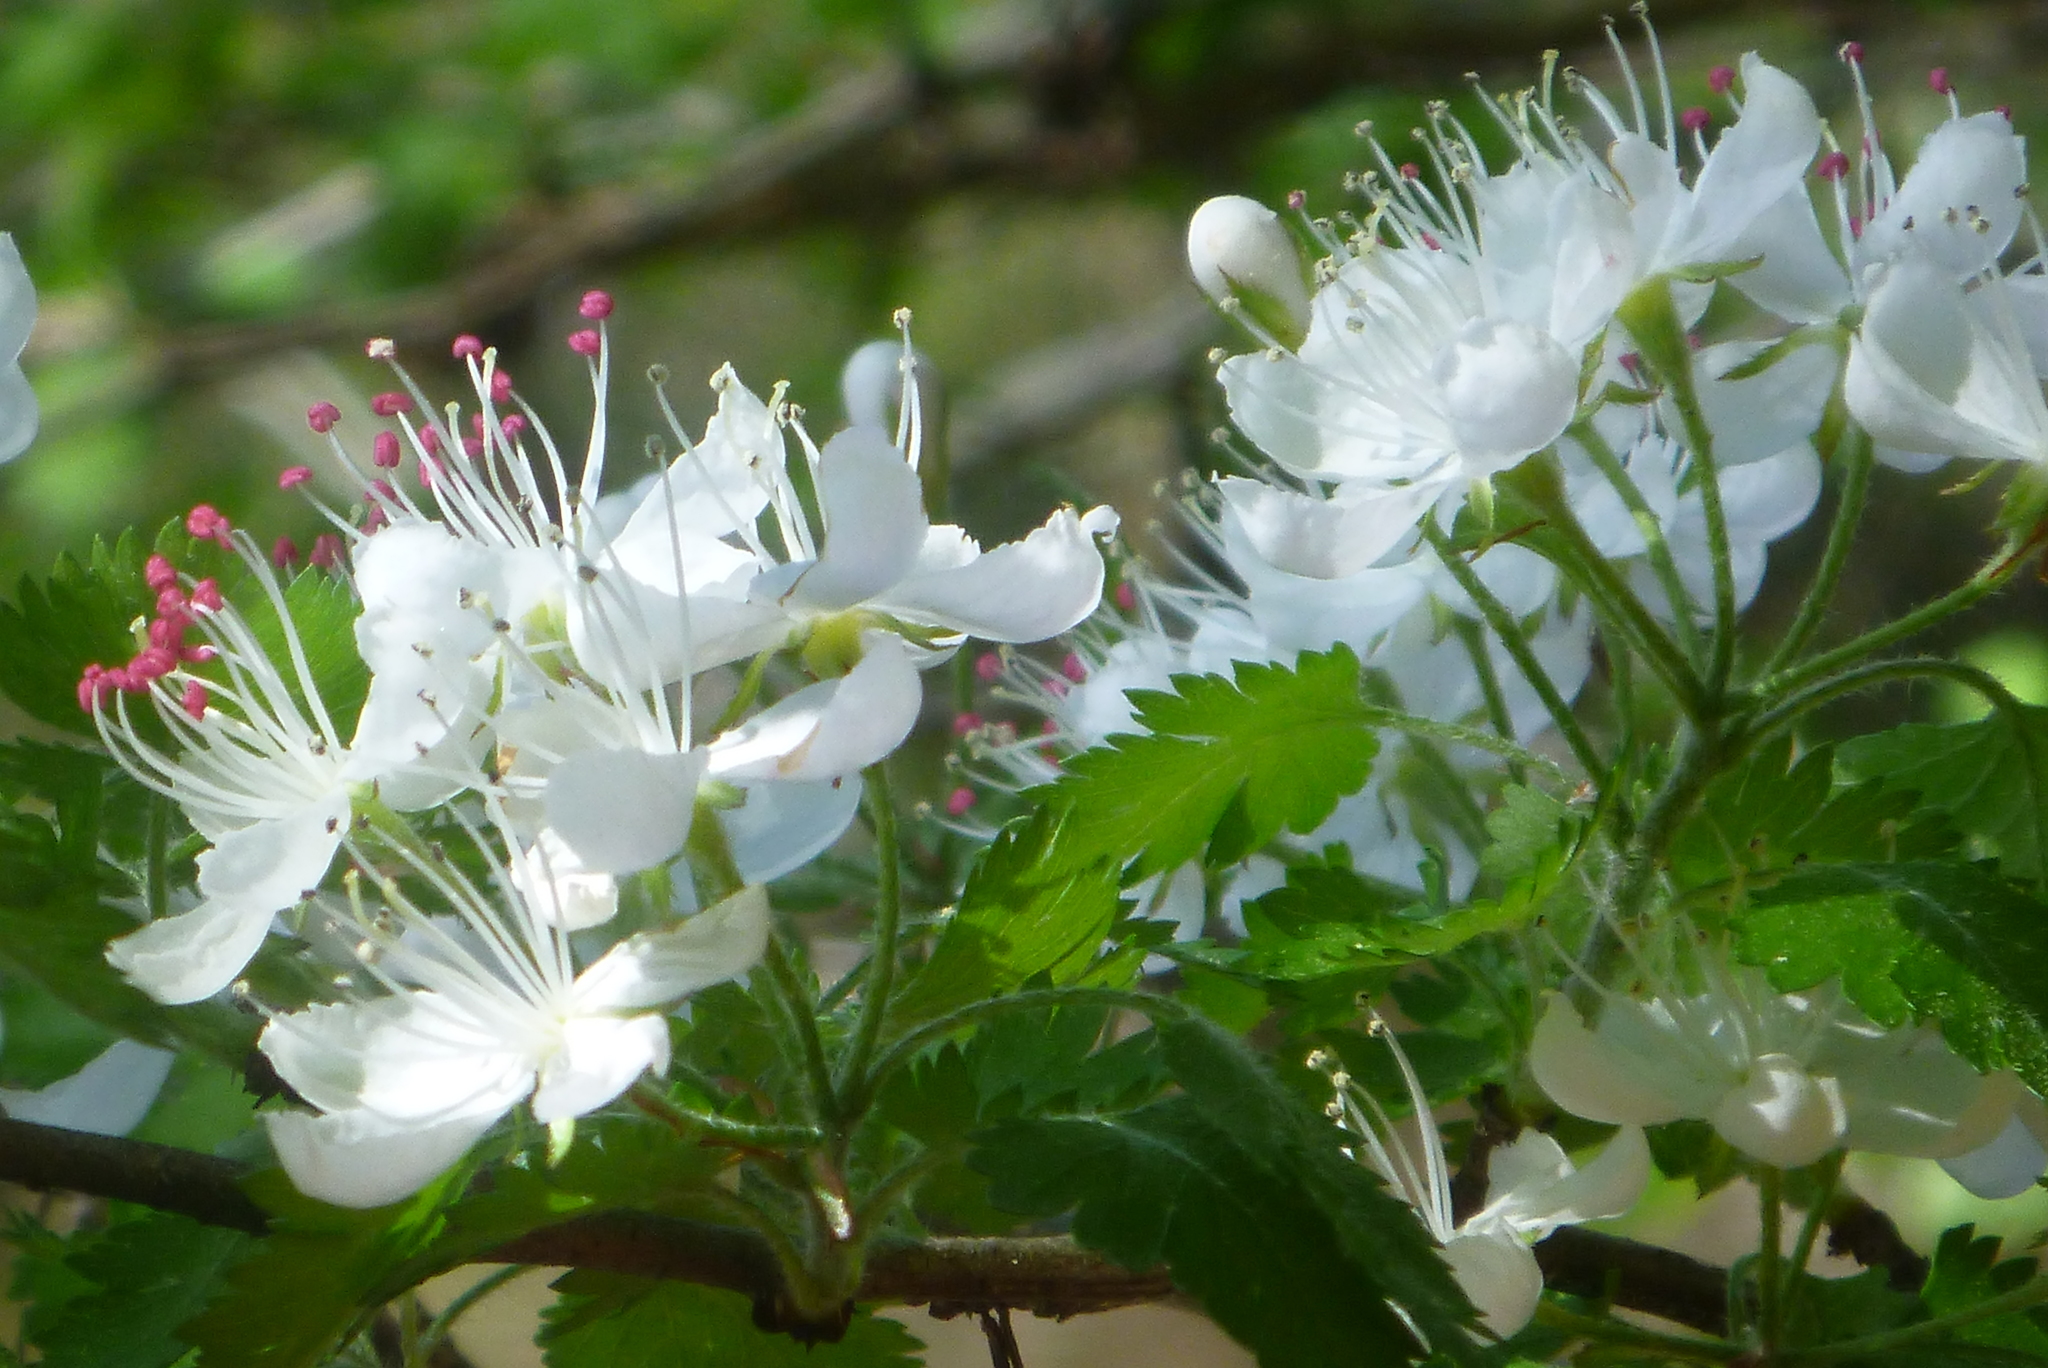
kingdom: Plantae
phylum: Tracheophyta
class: Magnoliopsida
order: Rosales
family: Rosaceae
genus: Crataegus
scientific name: Crataegus marshallii
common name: Parsley-hawthorn
